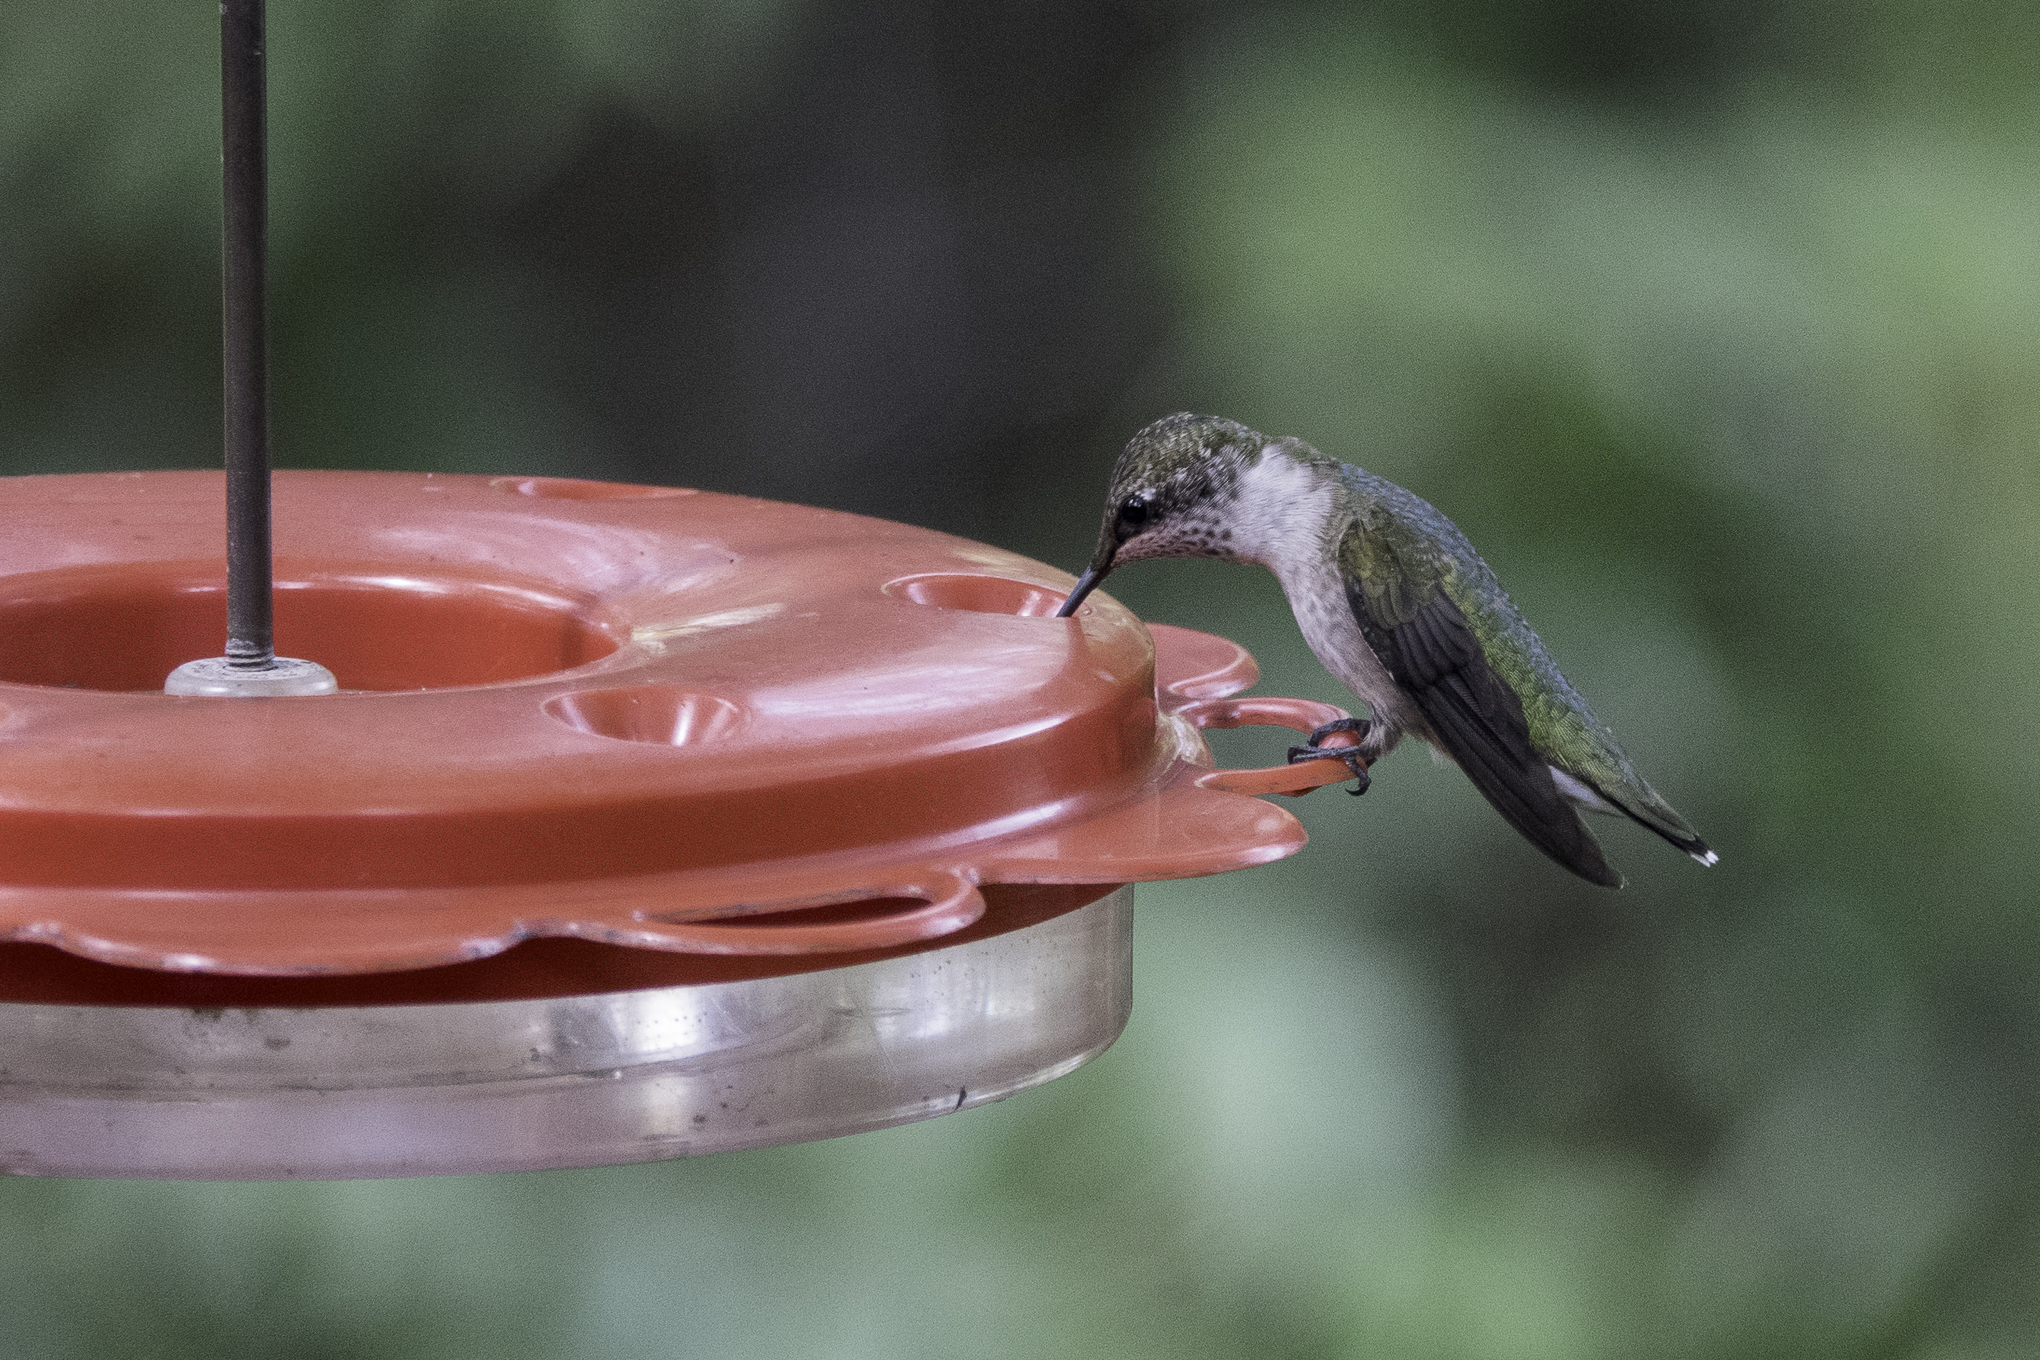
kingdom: Animalia
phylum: Chordata
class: Aves
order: Apodiformes
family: Trochilidae
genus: Archilochus
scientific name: Archilochus colubris
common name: Ruby-throated hummingbird
